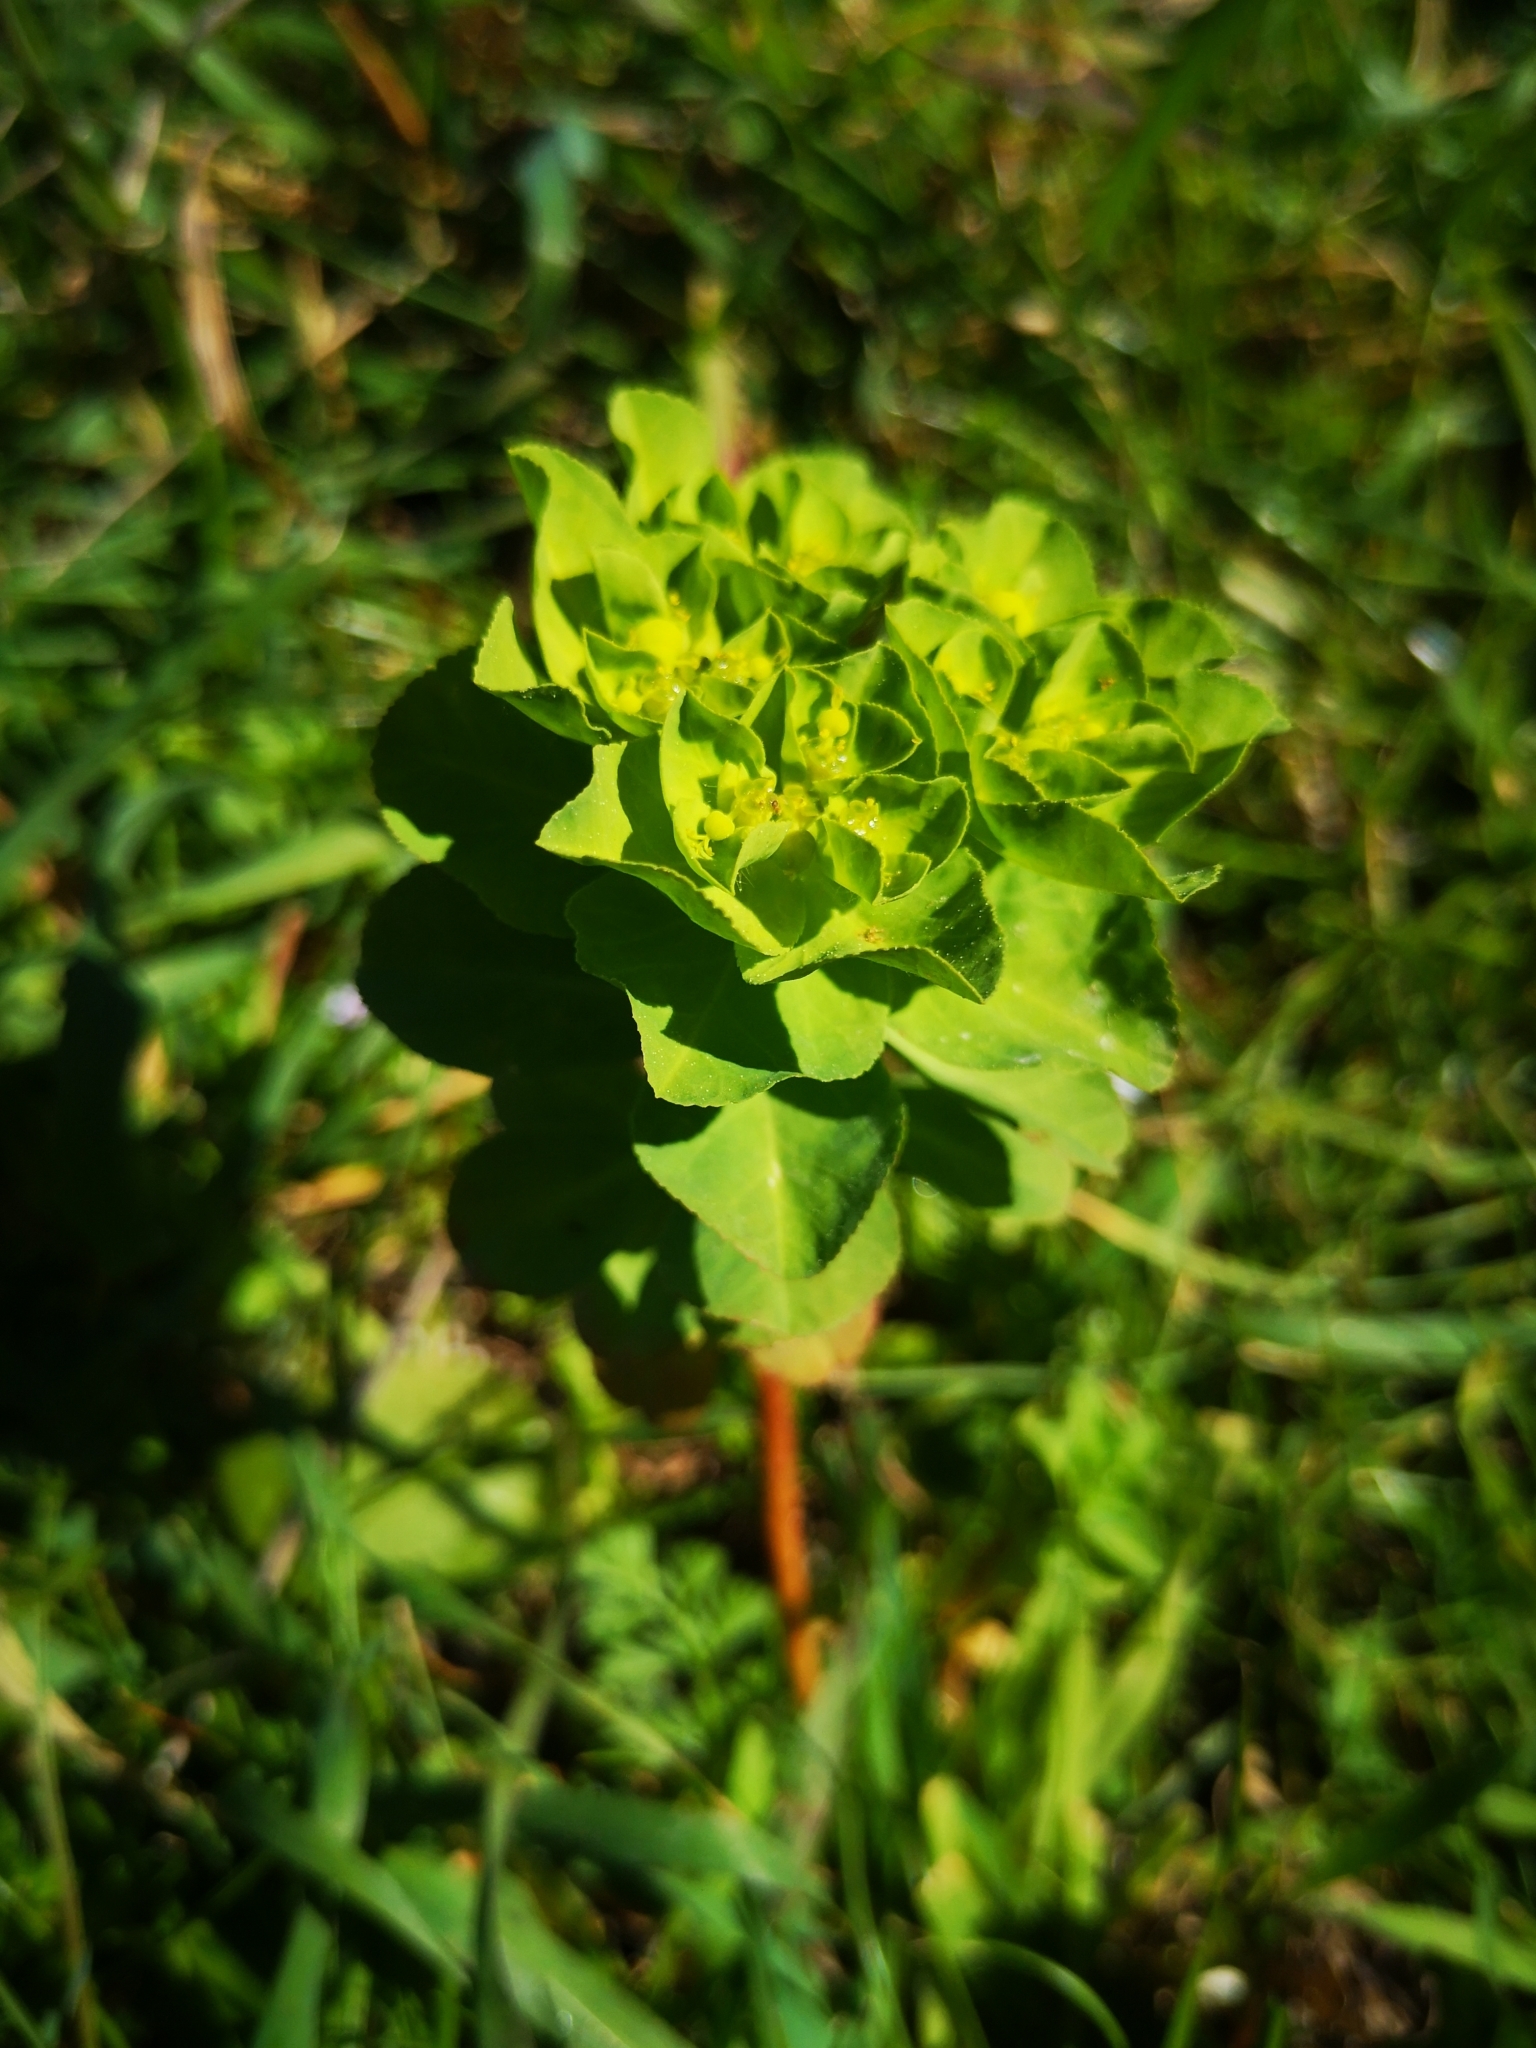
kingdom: Plantae
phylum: Tracheophyta
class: Magnoliopsida
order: Malpighiales
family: Euphorbiaceae
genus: Euphorbia
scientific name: Euphorbia helioscopia
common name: Sun spurge
